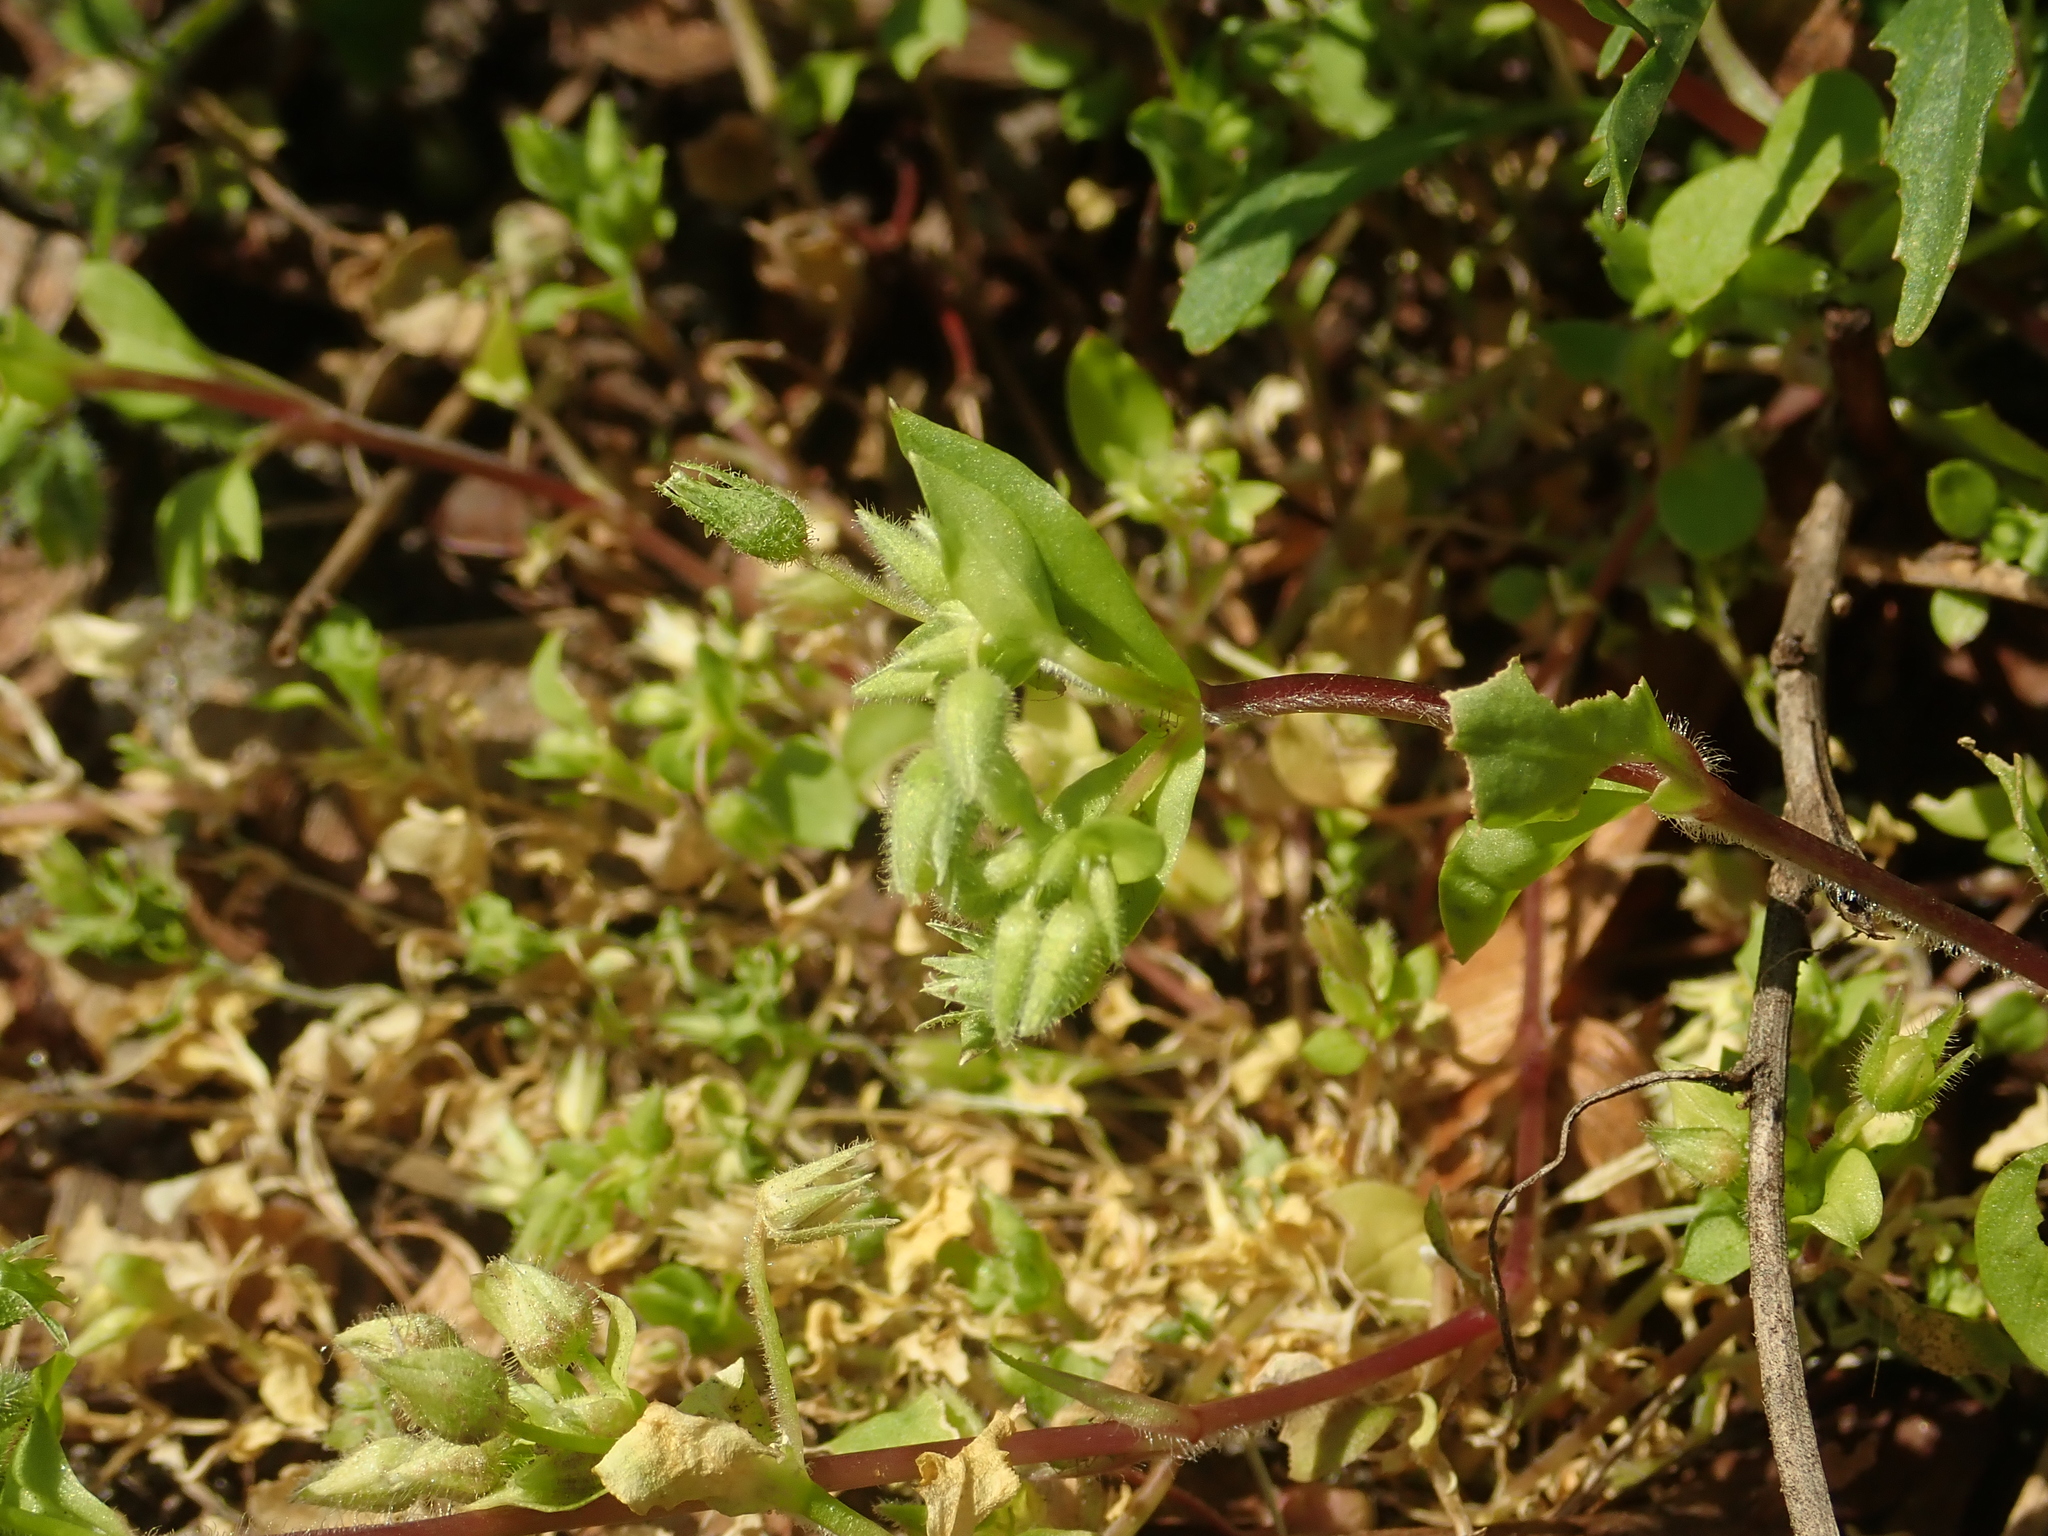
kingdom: Plantae
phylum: Tracheophyta
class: Magnoliopsida
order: Caryophyllales
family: Caryophyllaceae
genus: Stellaria
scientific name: Stellaria media
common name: Common chickweed
